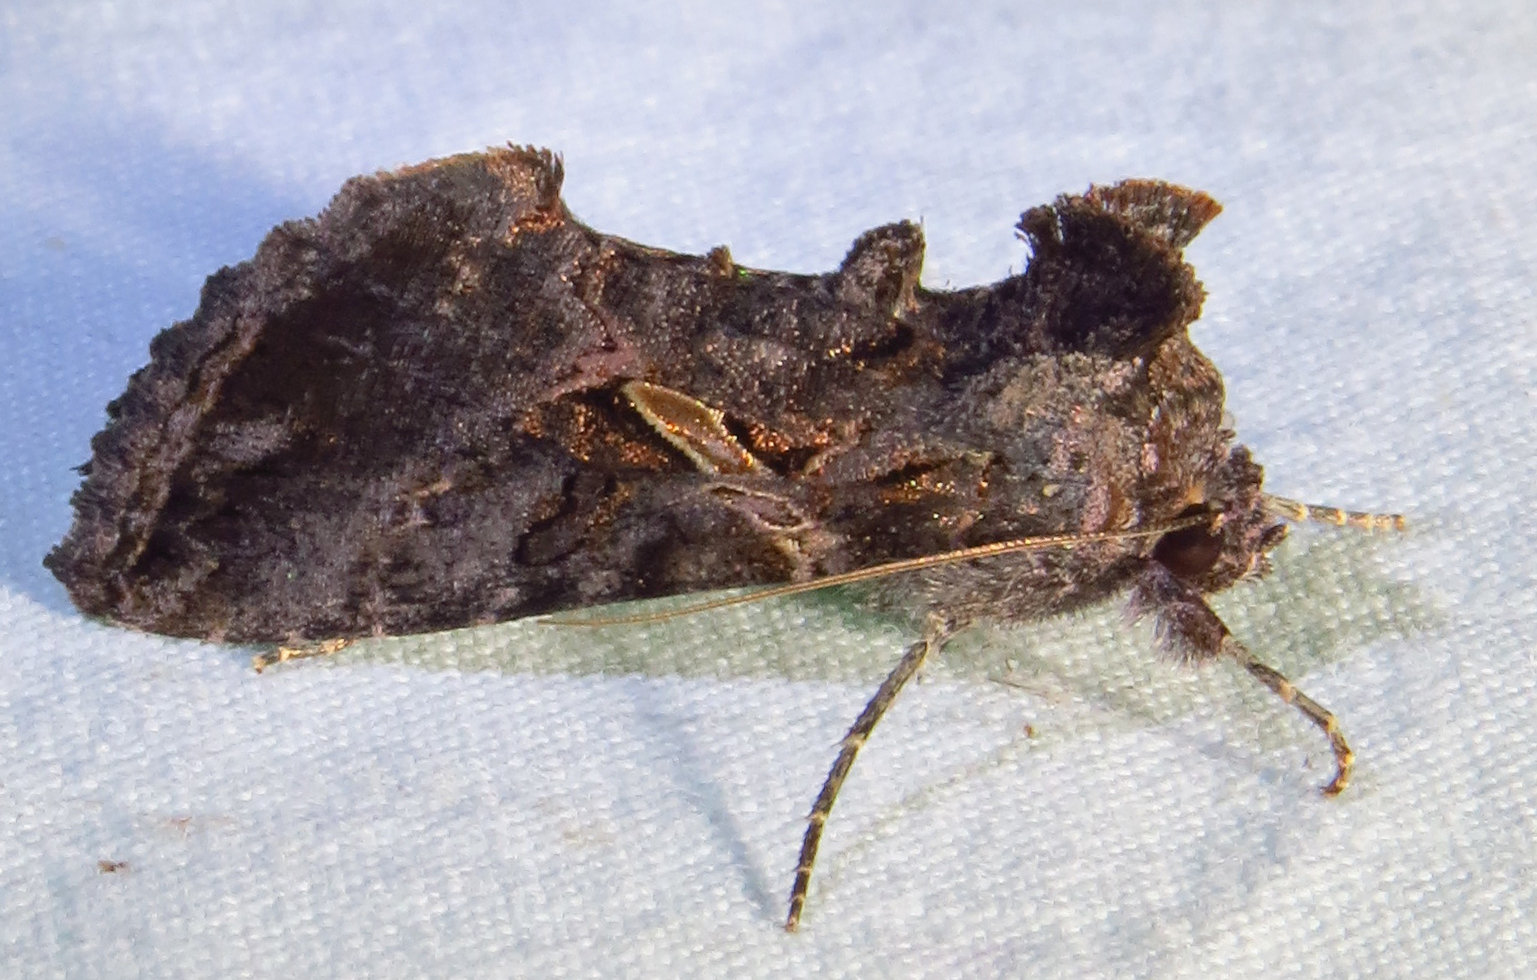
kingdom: Animalia
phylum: Arthropoda
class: Insecta
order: Lepidoptera
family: Noctuidae
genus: Ctenoplusia
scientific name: Ctenoplusia oxygramma
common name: Sharp-stigma looper moth
